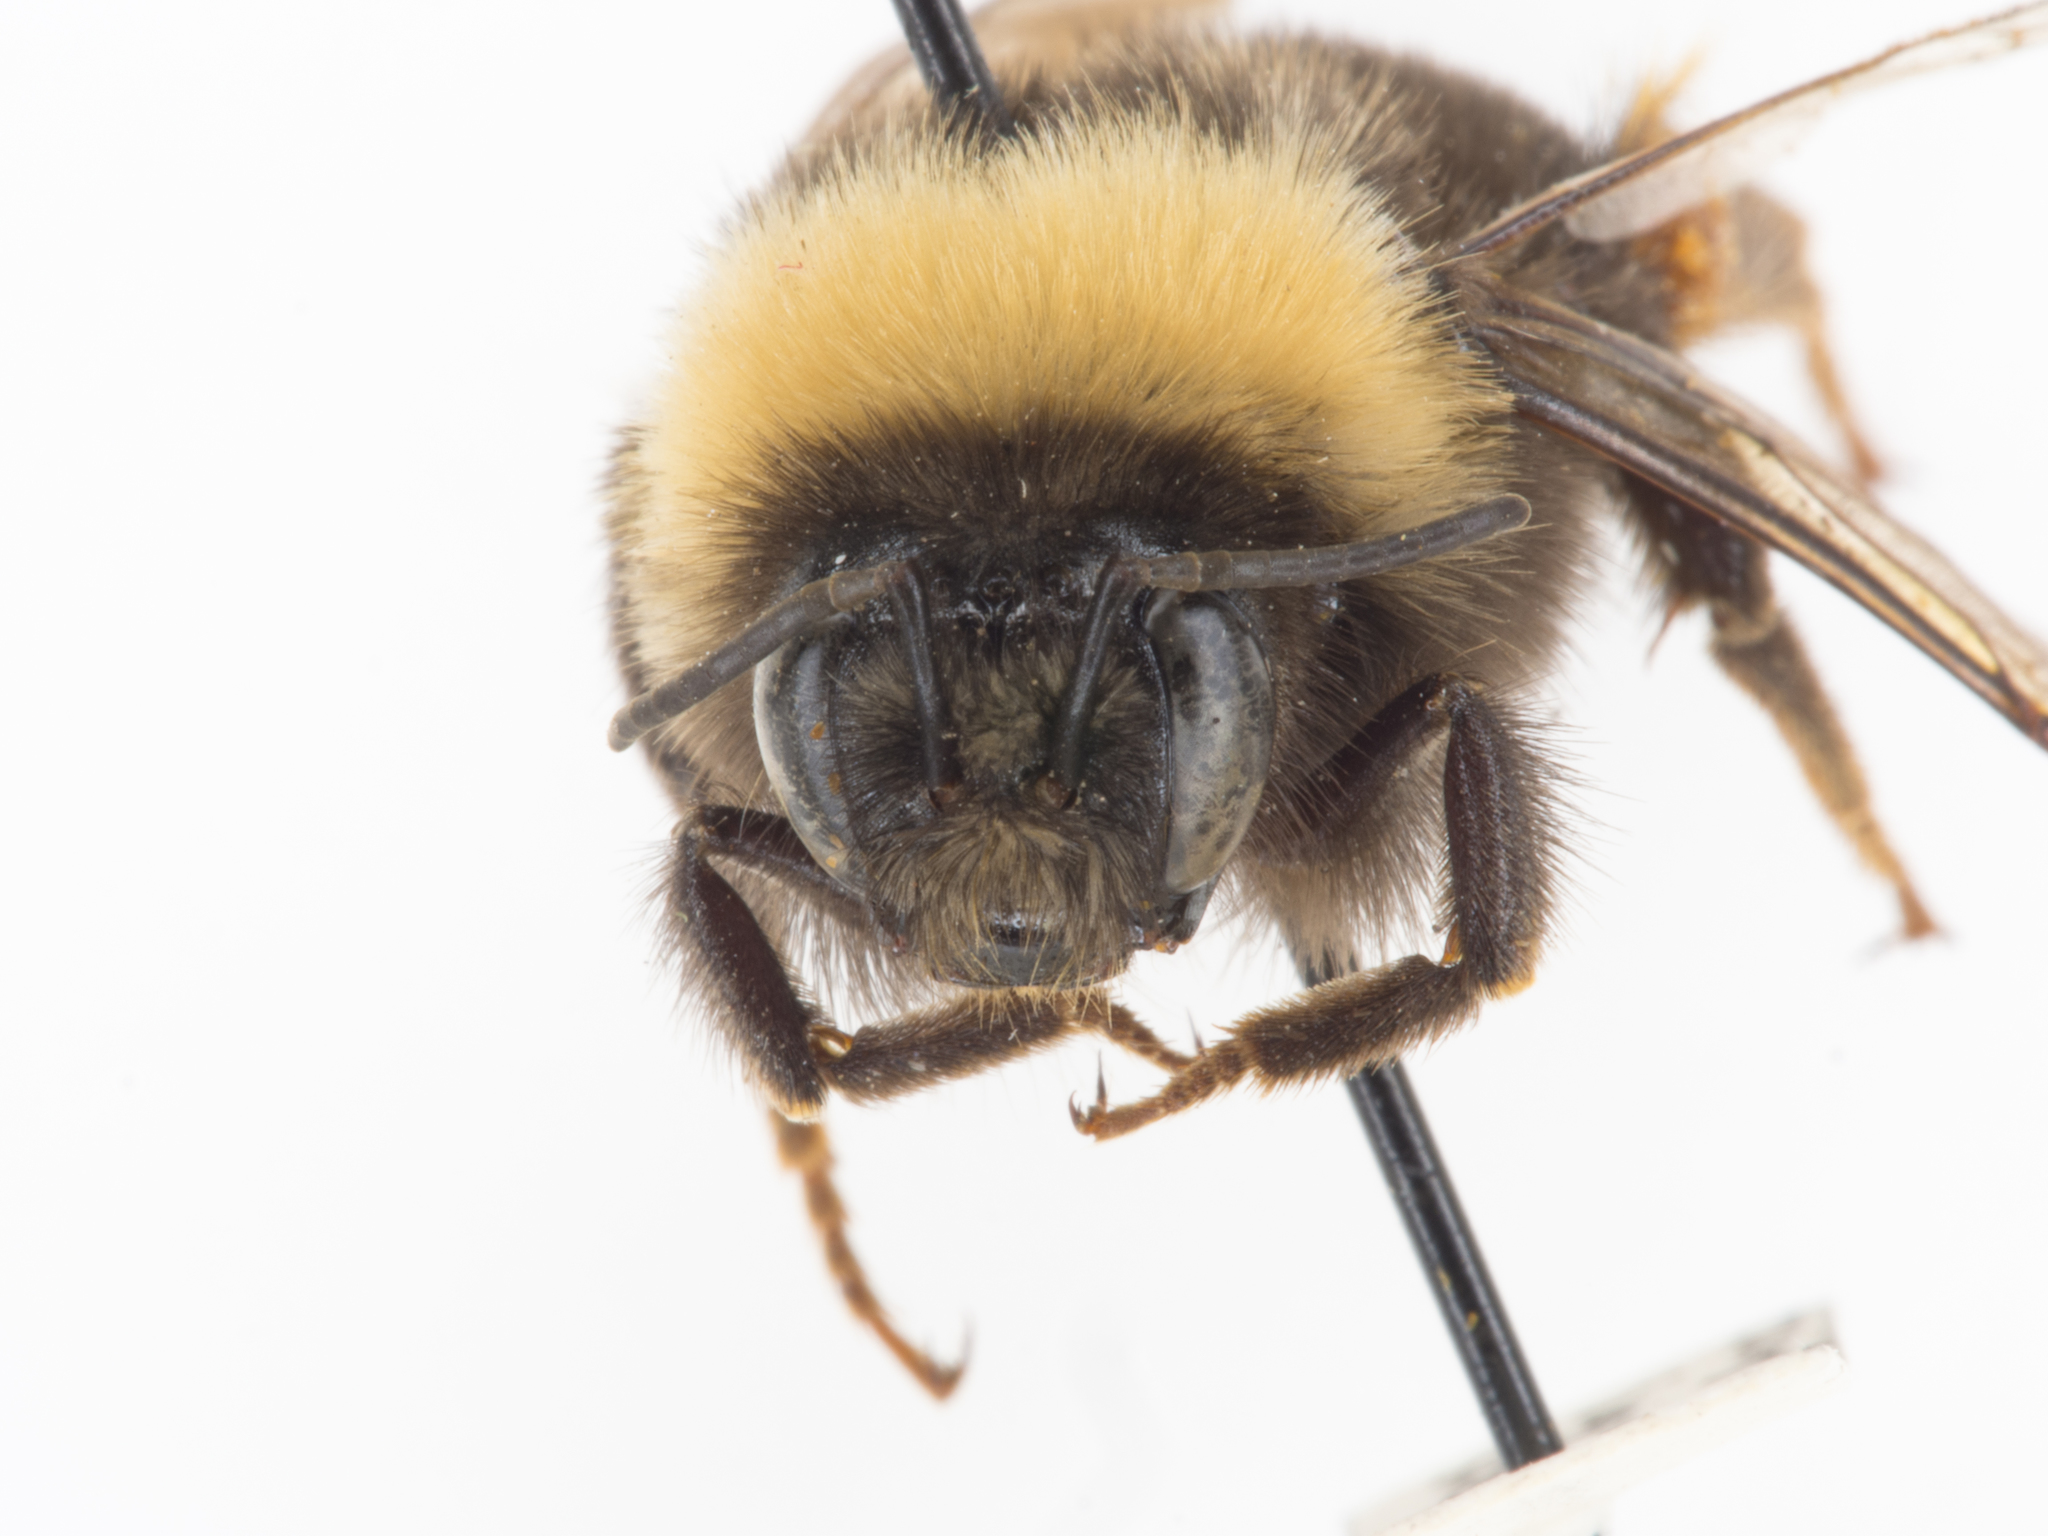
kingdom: Animalia
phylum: Arthropoda
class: Insecta
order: Hymenoptera
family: Apidae
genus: Bombus
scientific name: Bombus occidentalis
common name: Western bumble bee
